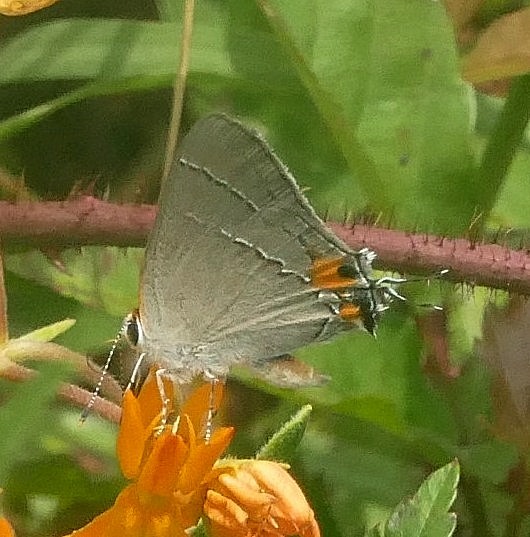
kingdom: Animalia
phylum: Arthropoda
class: Insecta
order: Lepidoptera
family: Lycaenidae
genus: Strymon
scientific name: Strymon melinus
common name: Gray hairstreak
